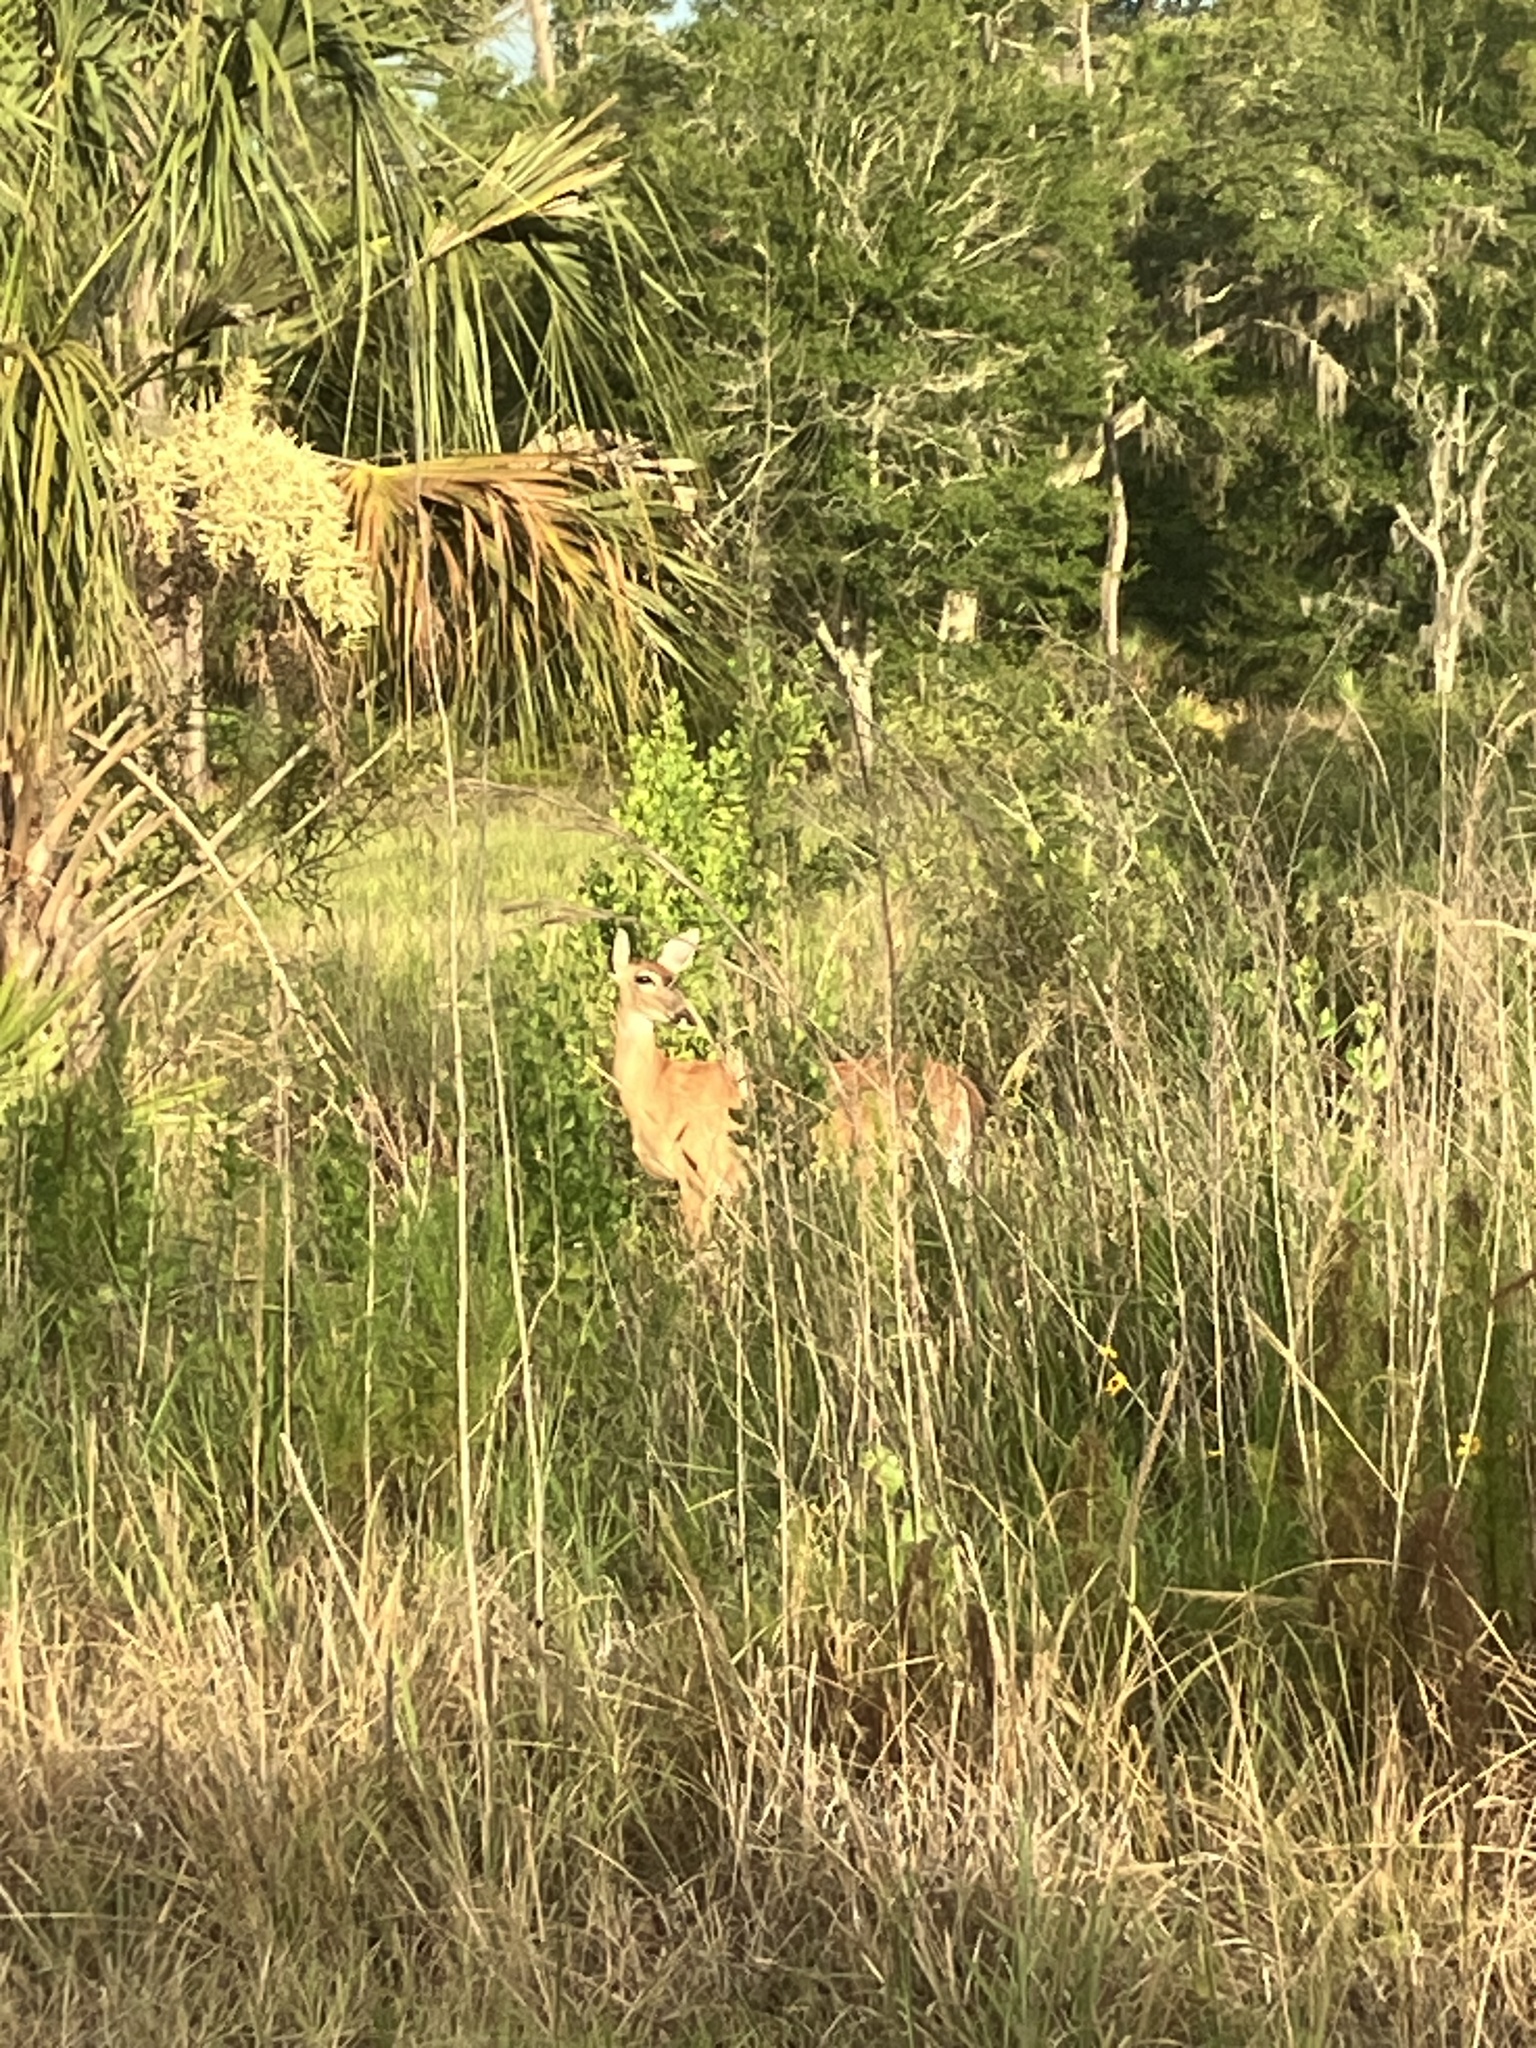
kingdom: Animalia
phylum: Chordata
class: Mammalia
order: Artiodactyla
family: Cervidae
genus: Odocoileus
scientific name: Odocoileus virginianus
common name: White-tailed deer
